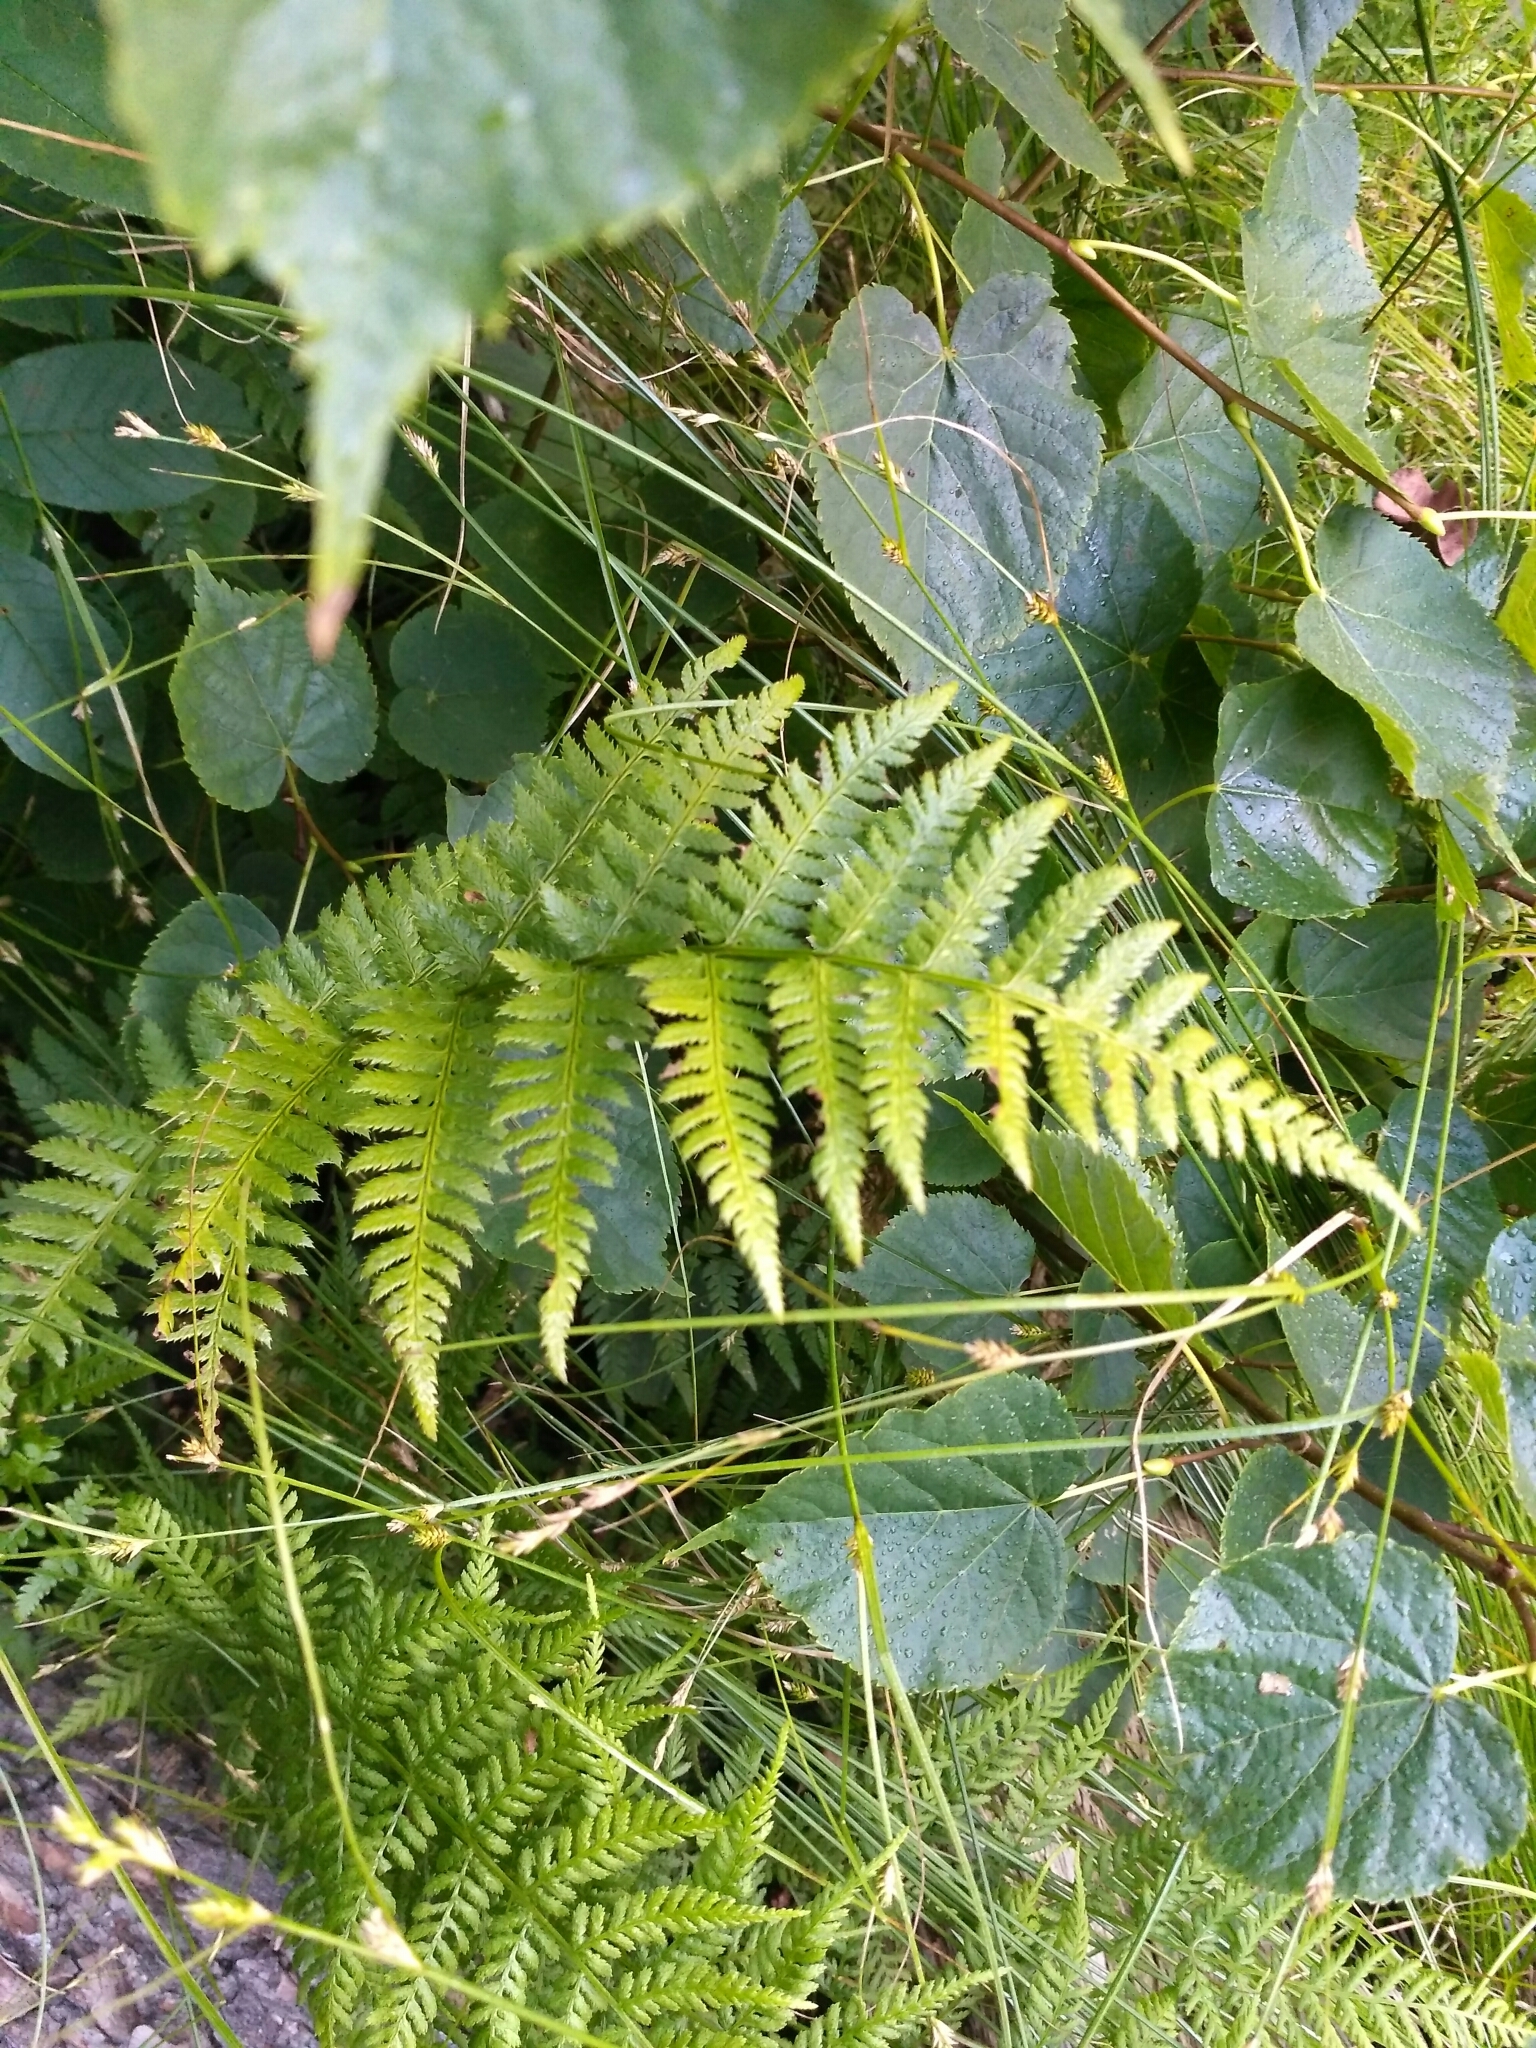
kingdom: Plantae
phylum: Tracheophyta
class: Polypodiopsida
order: Polypodiales
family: Athyriaceae
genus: Athyrium
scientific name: Athyrium filix-femina
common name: Lady fern
